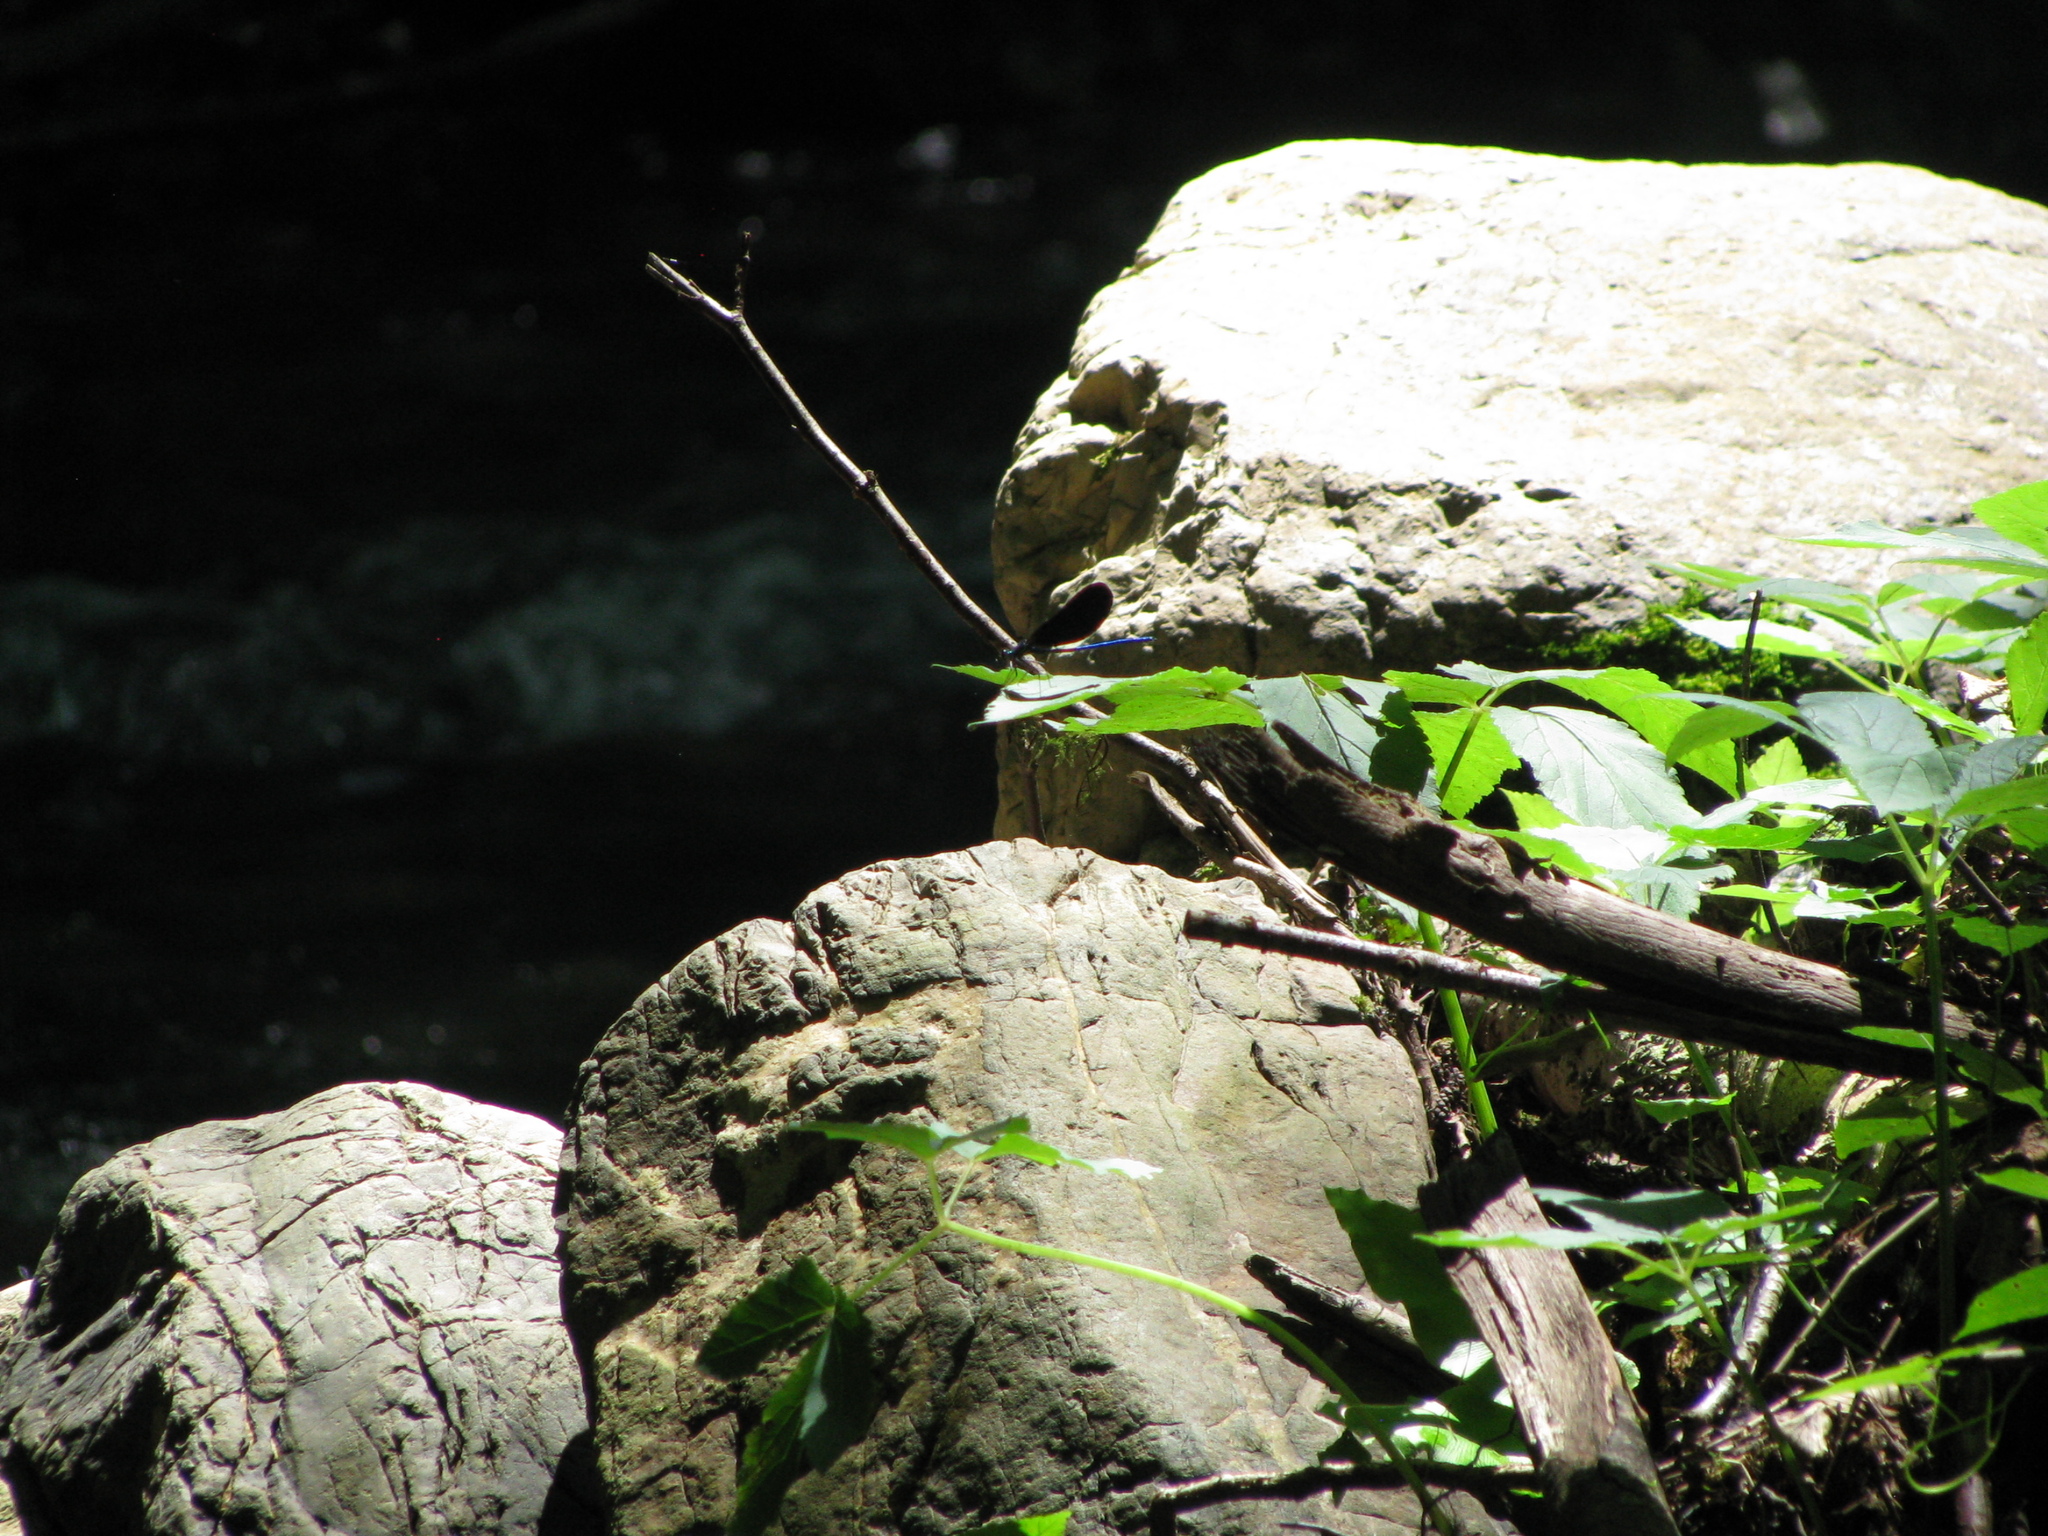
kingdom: Animalia
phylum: Arthropoda
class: Insecta
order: Odonata
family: Calopterygidae
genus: Calopteryx
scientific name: Calopteryx virgo
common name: Beautiful demoiselle
